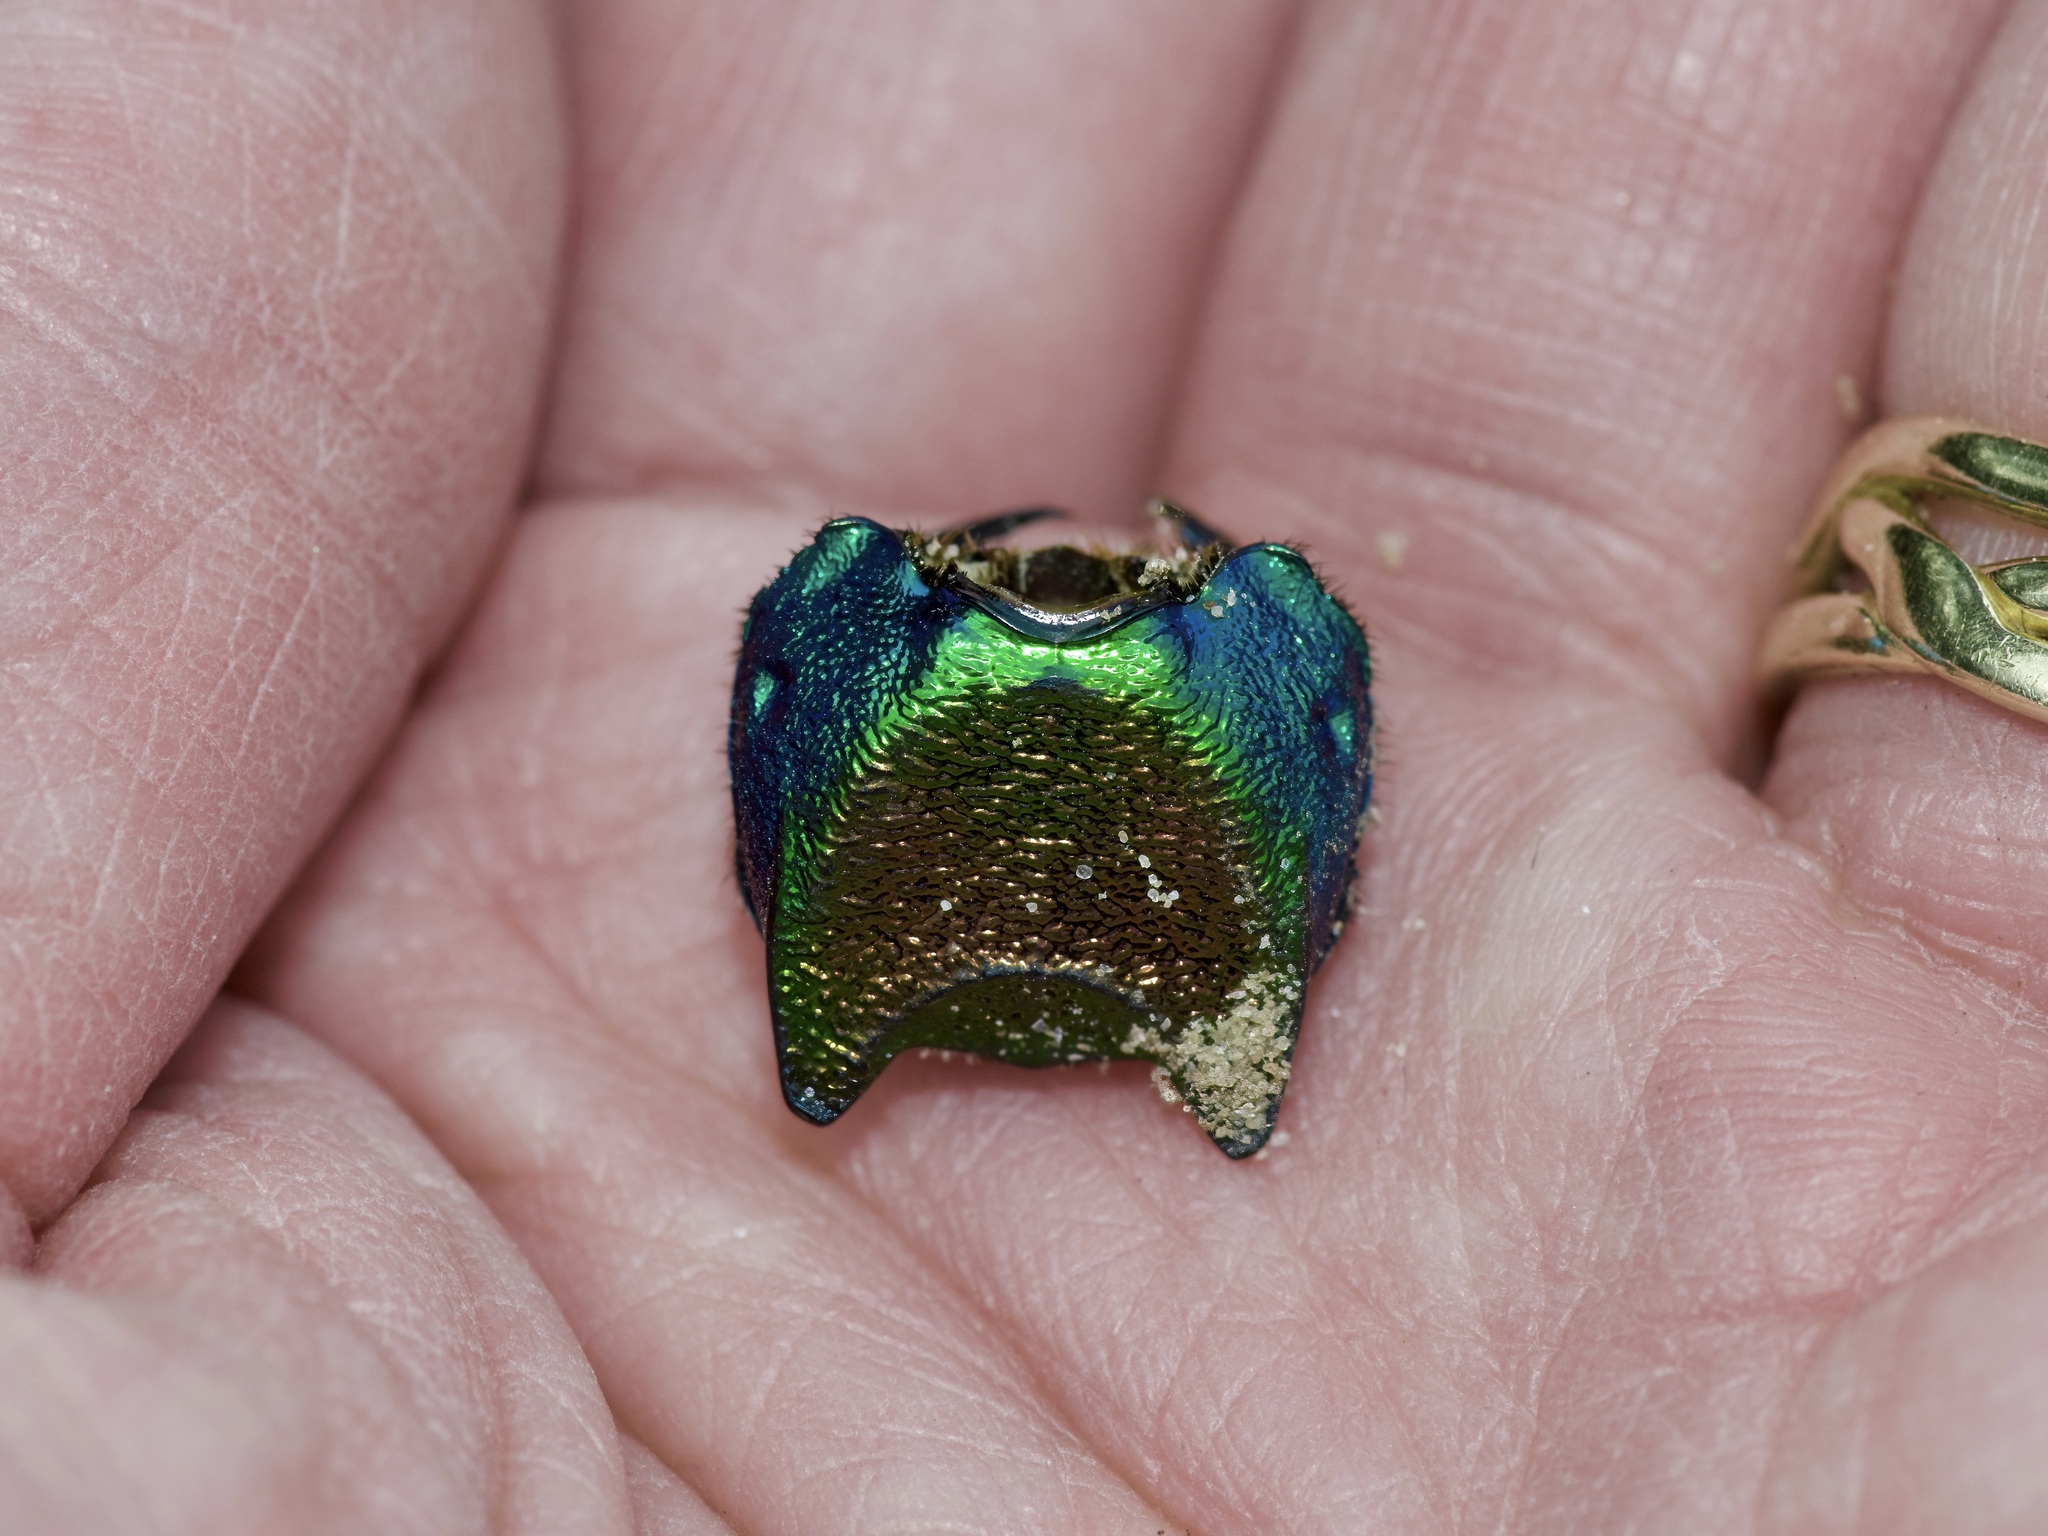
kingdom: Animalia
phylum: Arthropoda
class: Insecta
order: Coleoptera
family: Scarabaeidae
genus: Phanaeus
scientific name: Phanaeus difformis
